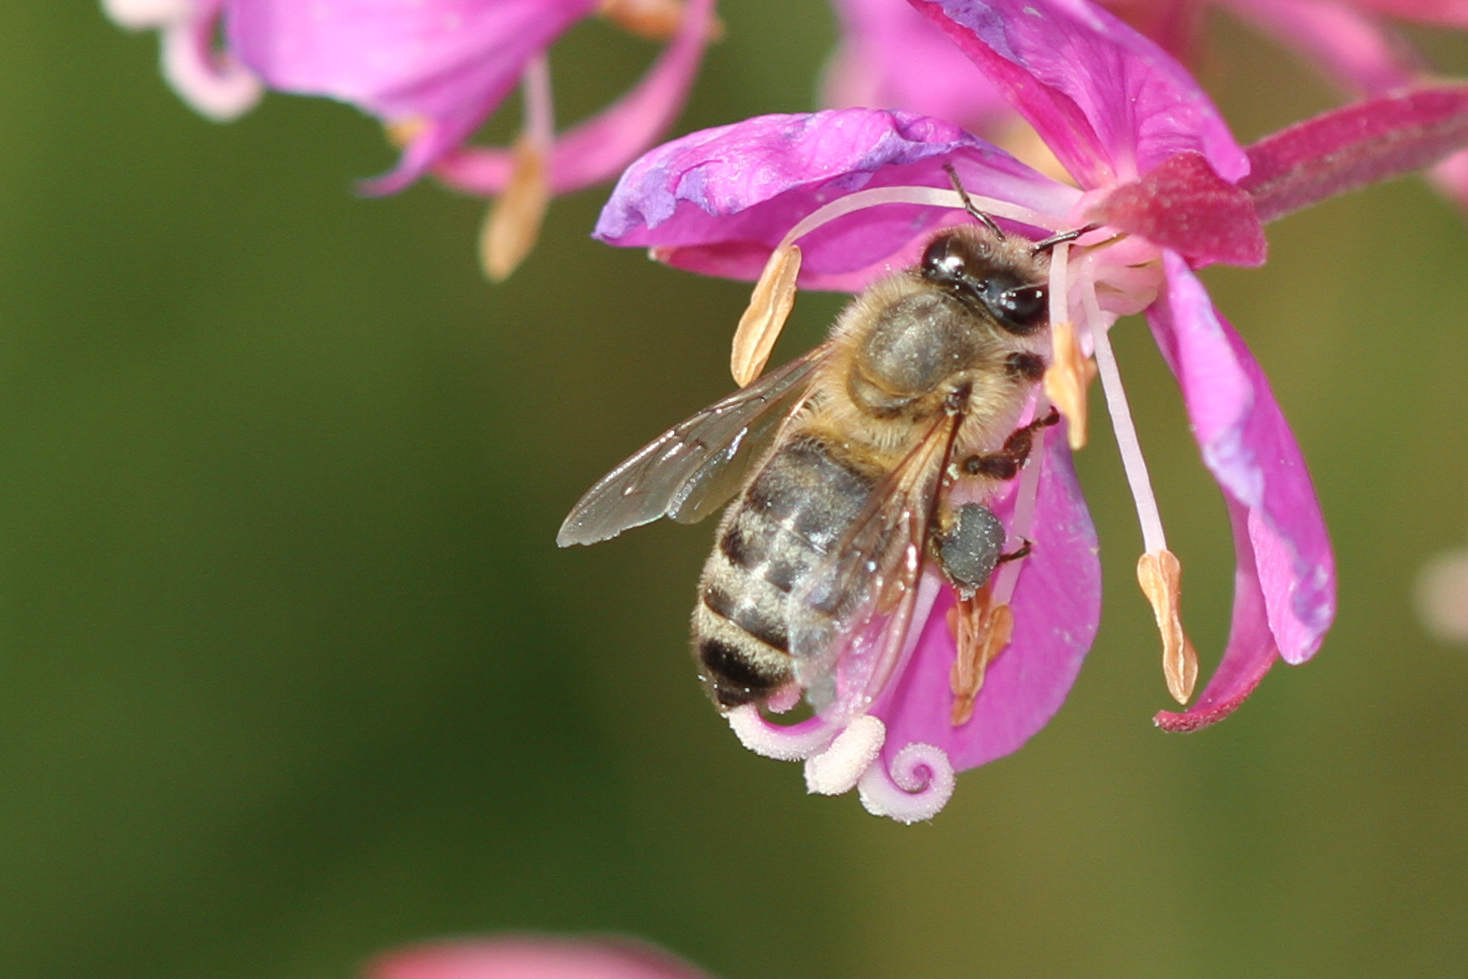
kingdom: Animalia
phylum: Arthropoda
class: Insecta
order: Hymenoptera
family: Apidae
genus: Apis
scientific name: Apis mellifera
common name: Honey bee
